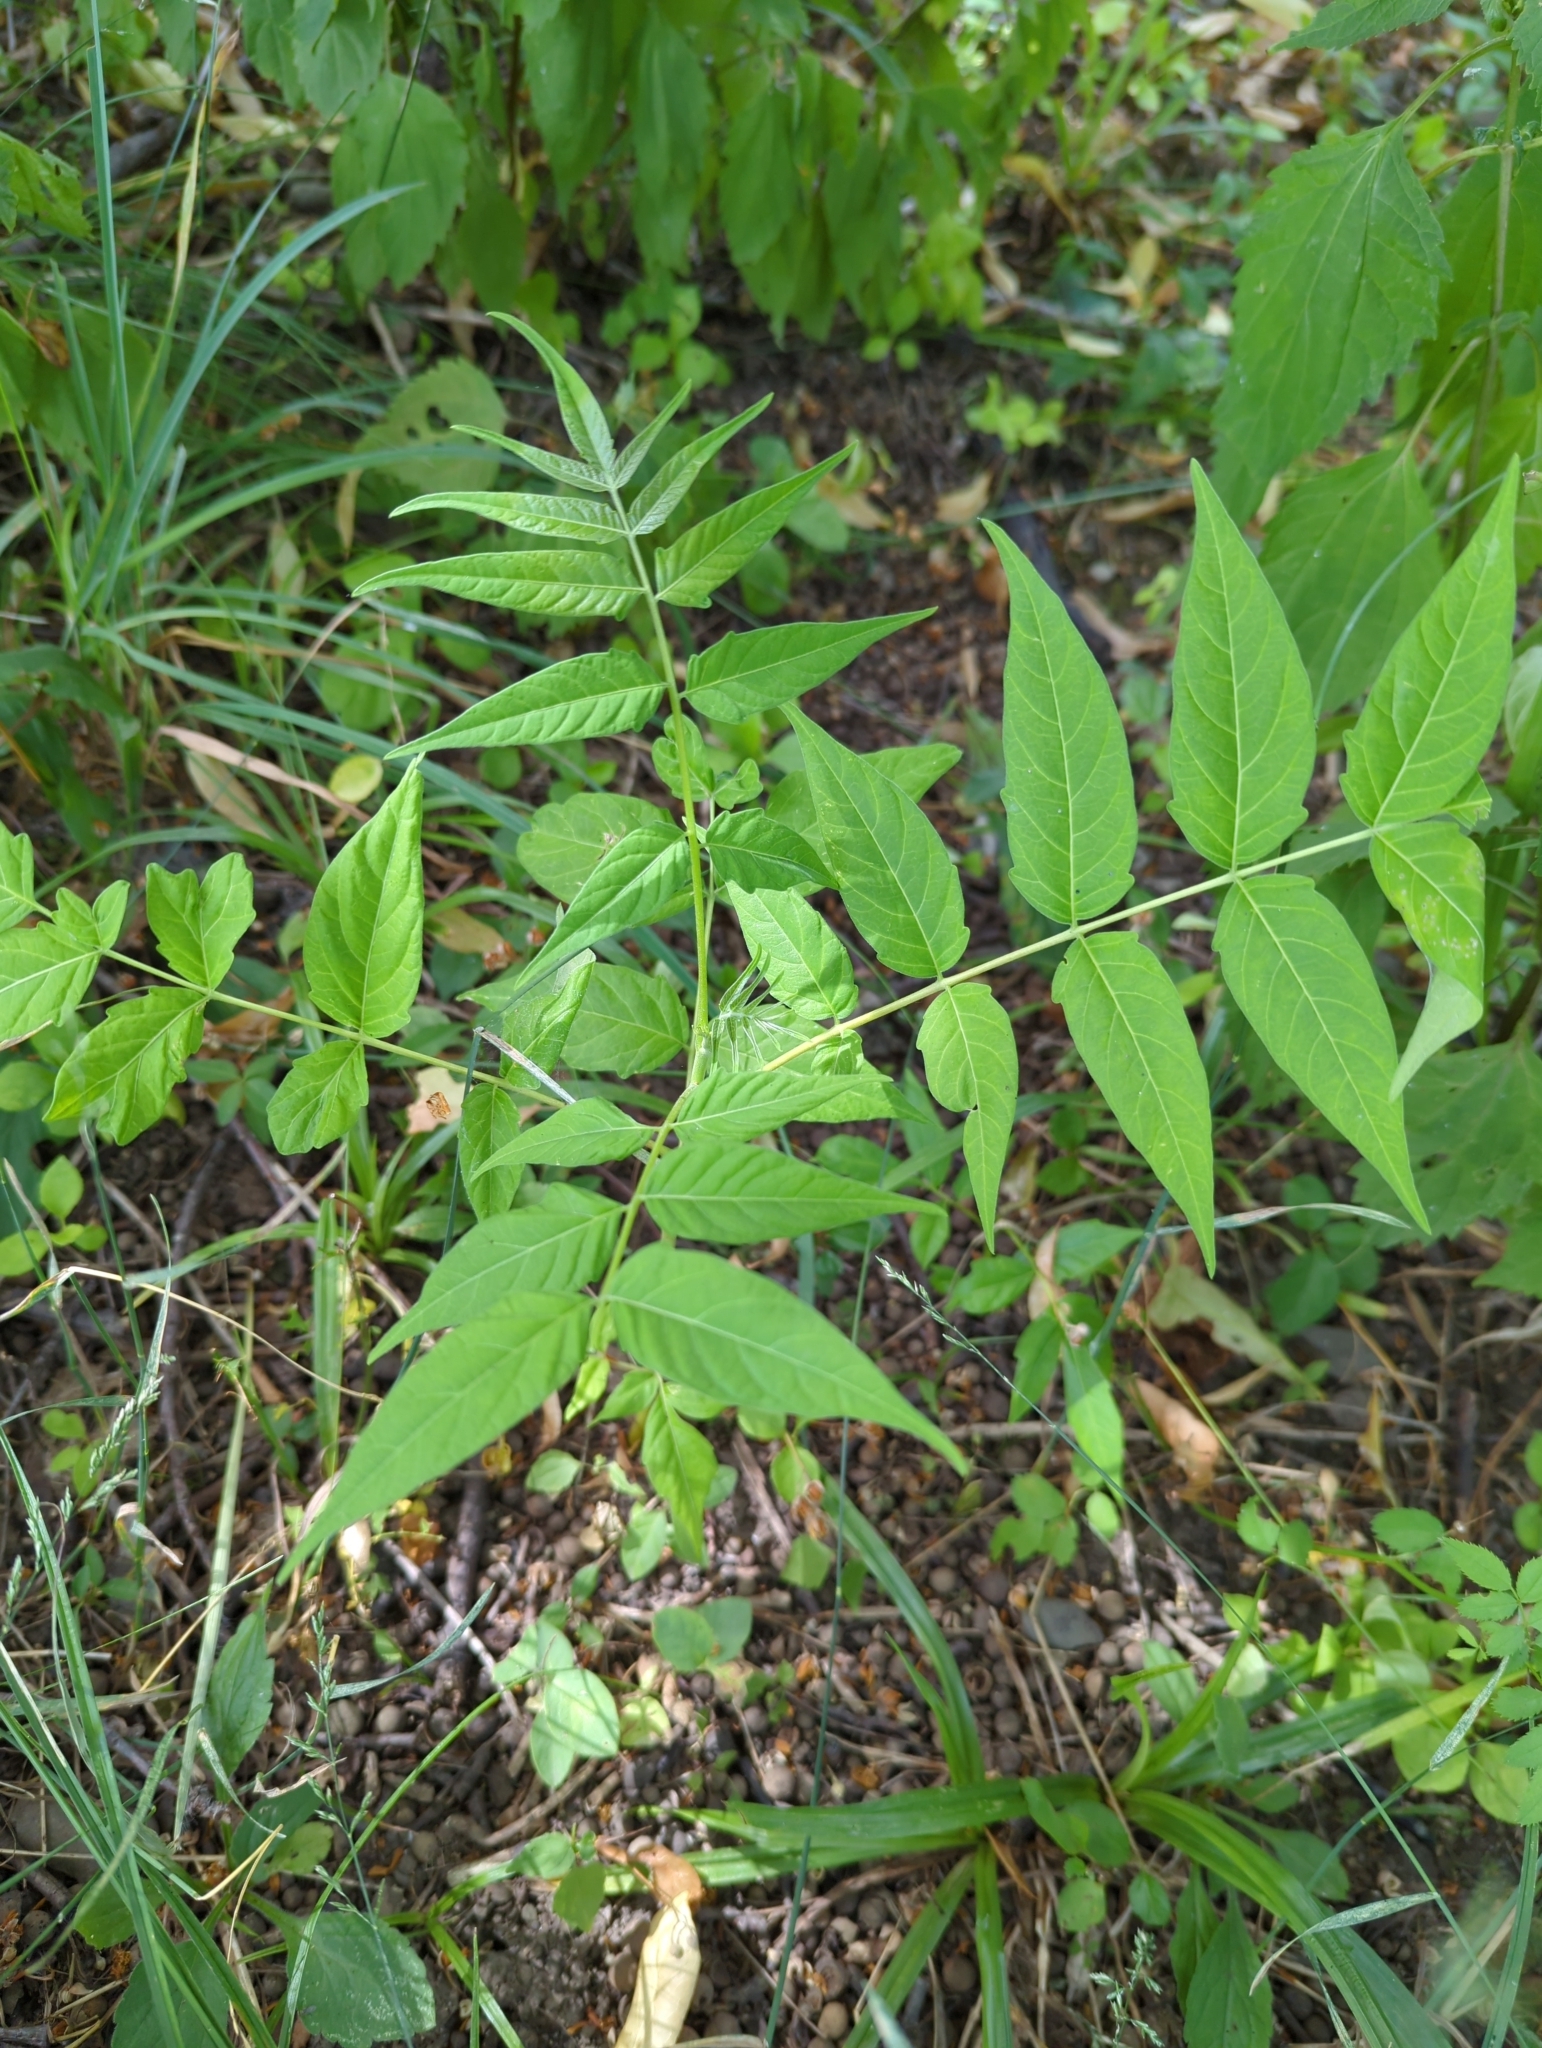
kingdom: Plantae
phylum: Tracheophyta
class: Magnoliopsida
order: Sapindales
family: Simaroubaceae
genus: Ailanthus
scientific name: Ailanthus altissima
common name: Tree-of-heaven
